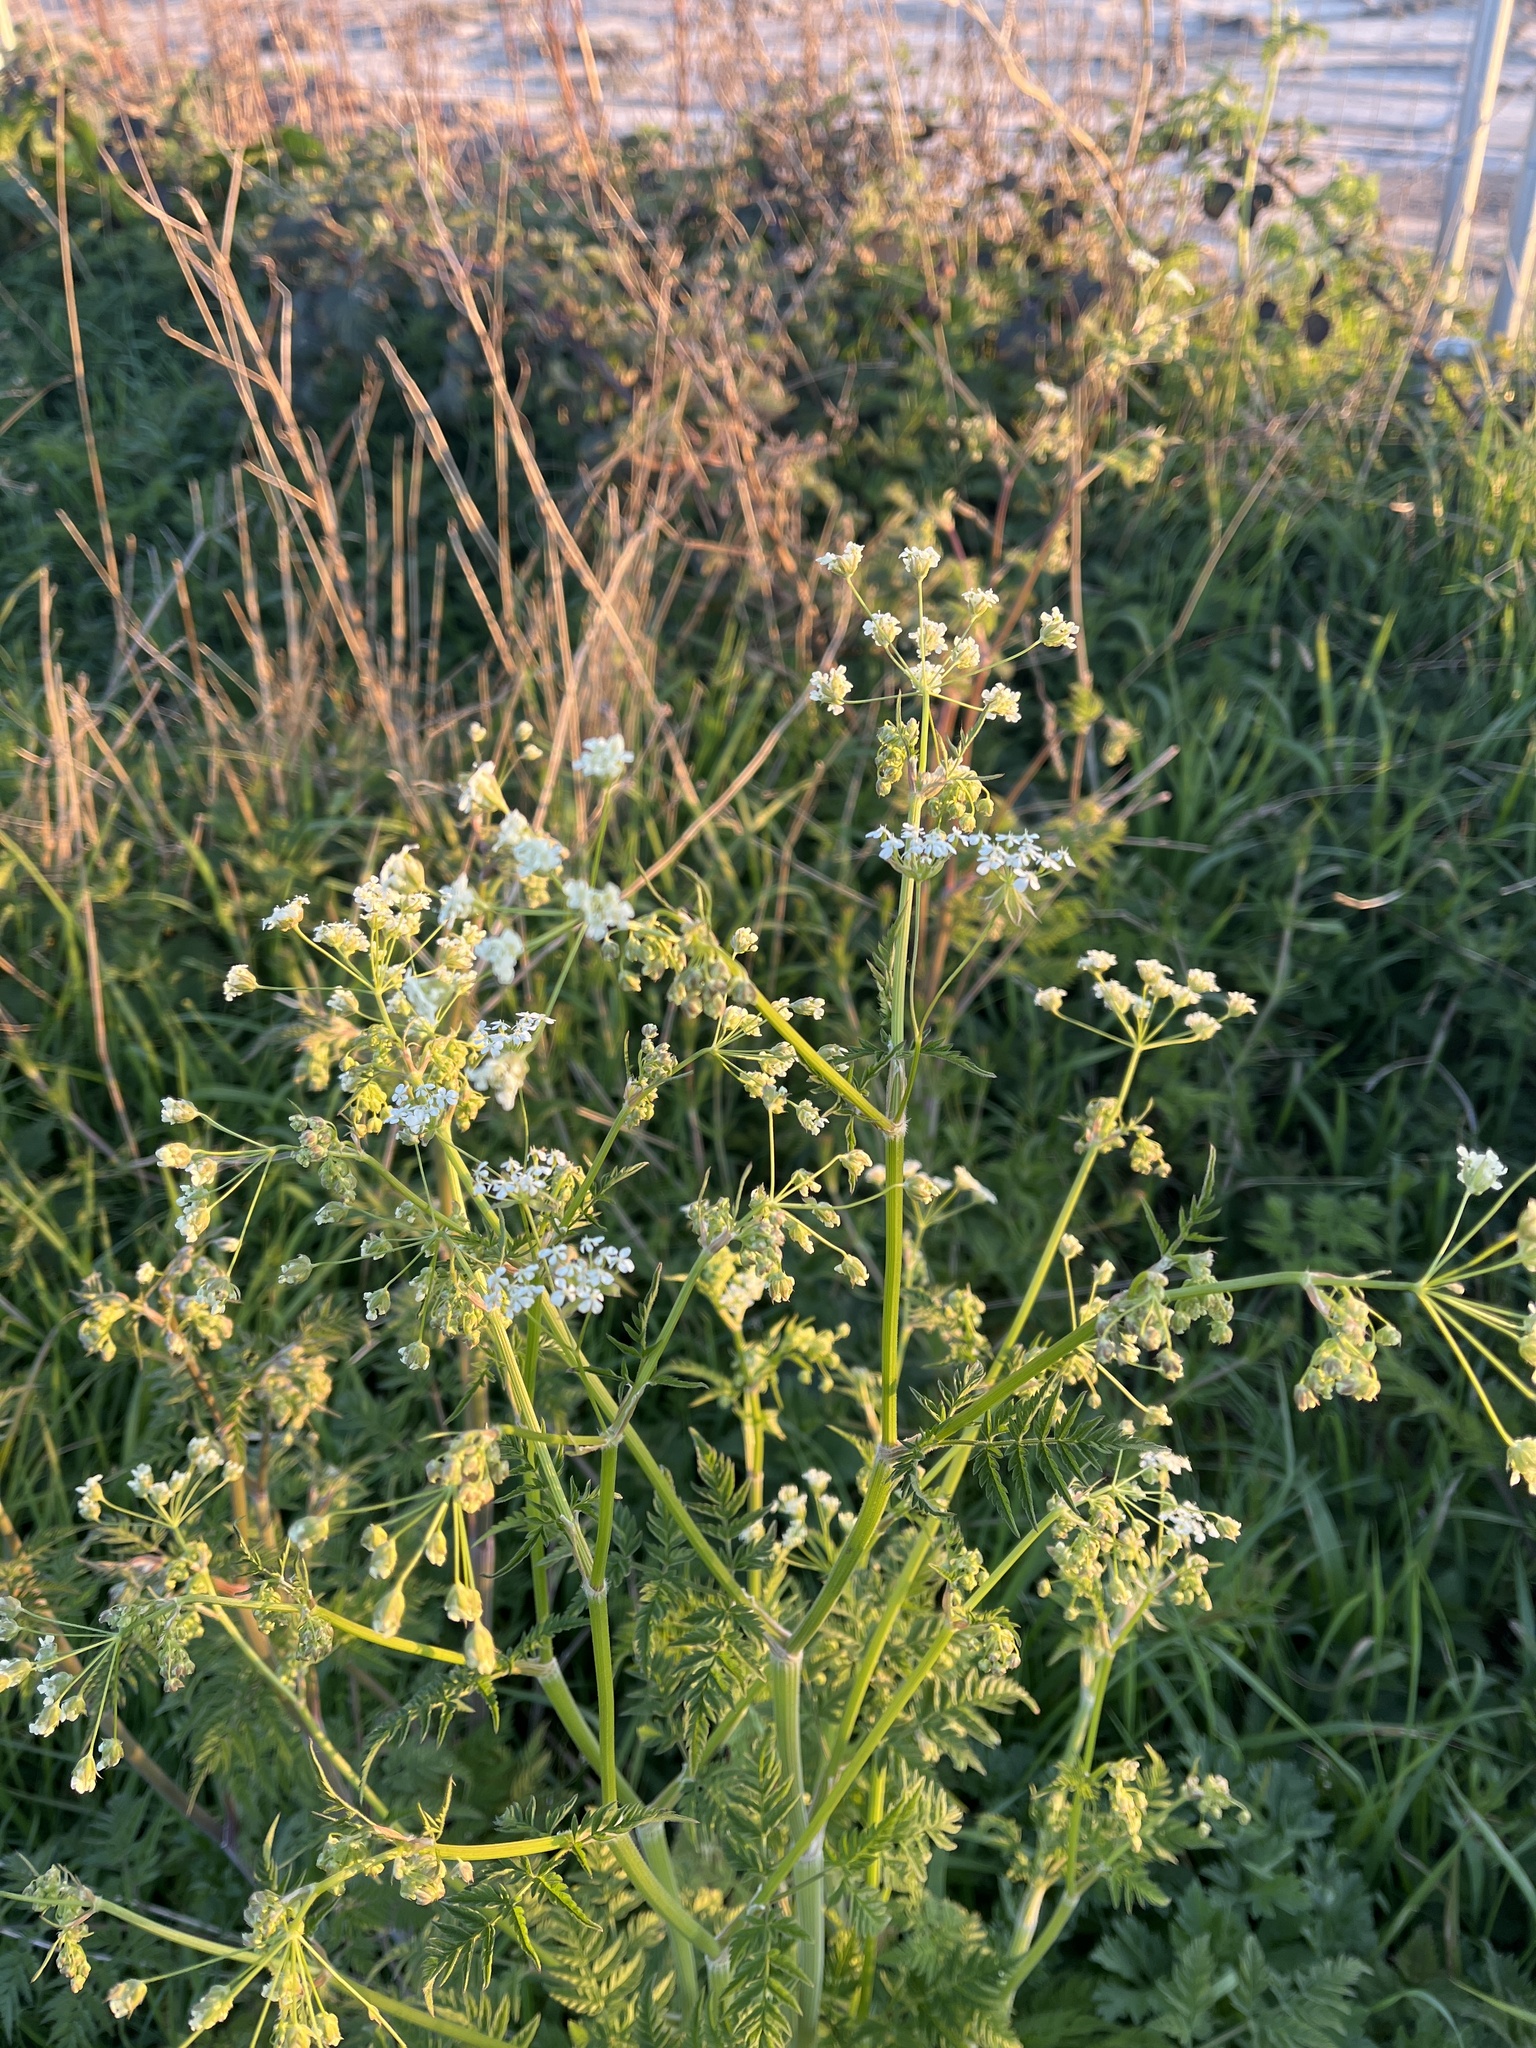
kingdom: Plantae
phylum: Tracheophyta
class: Magnoliopsida
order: Apiales
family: Apiaceae
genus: Anthriscus
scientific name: Anthriscus sylvestris
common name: Cow parsley
